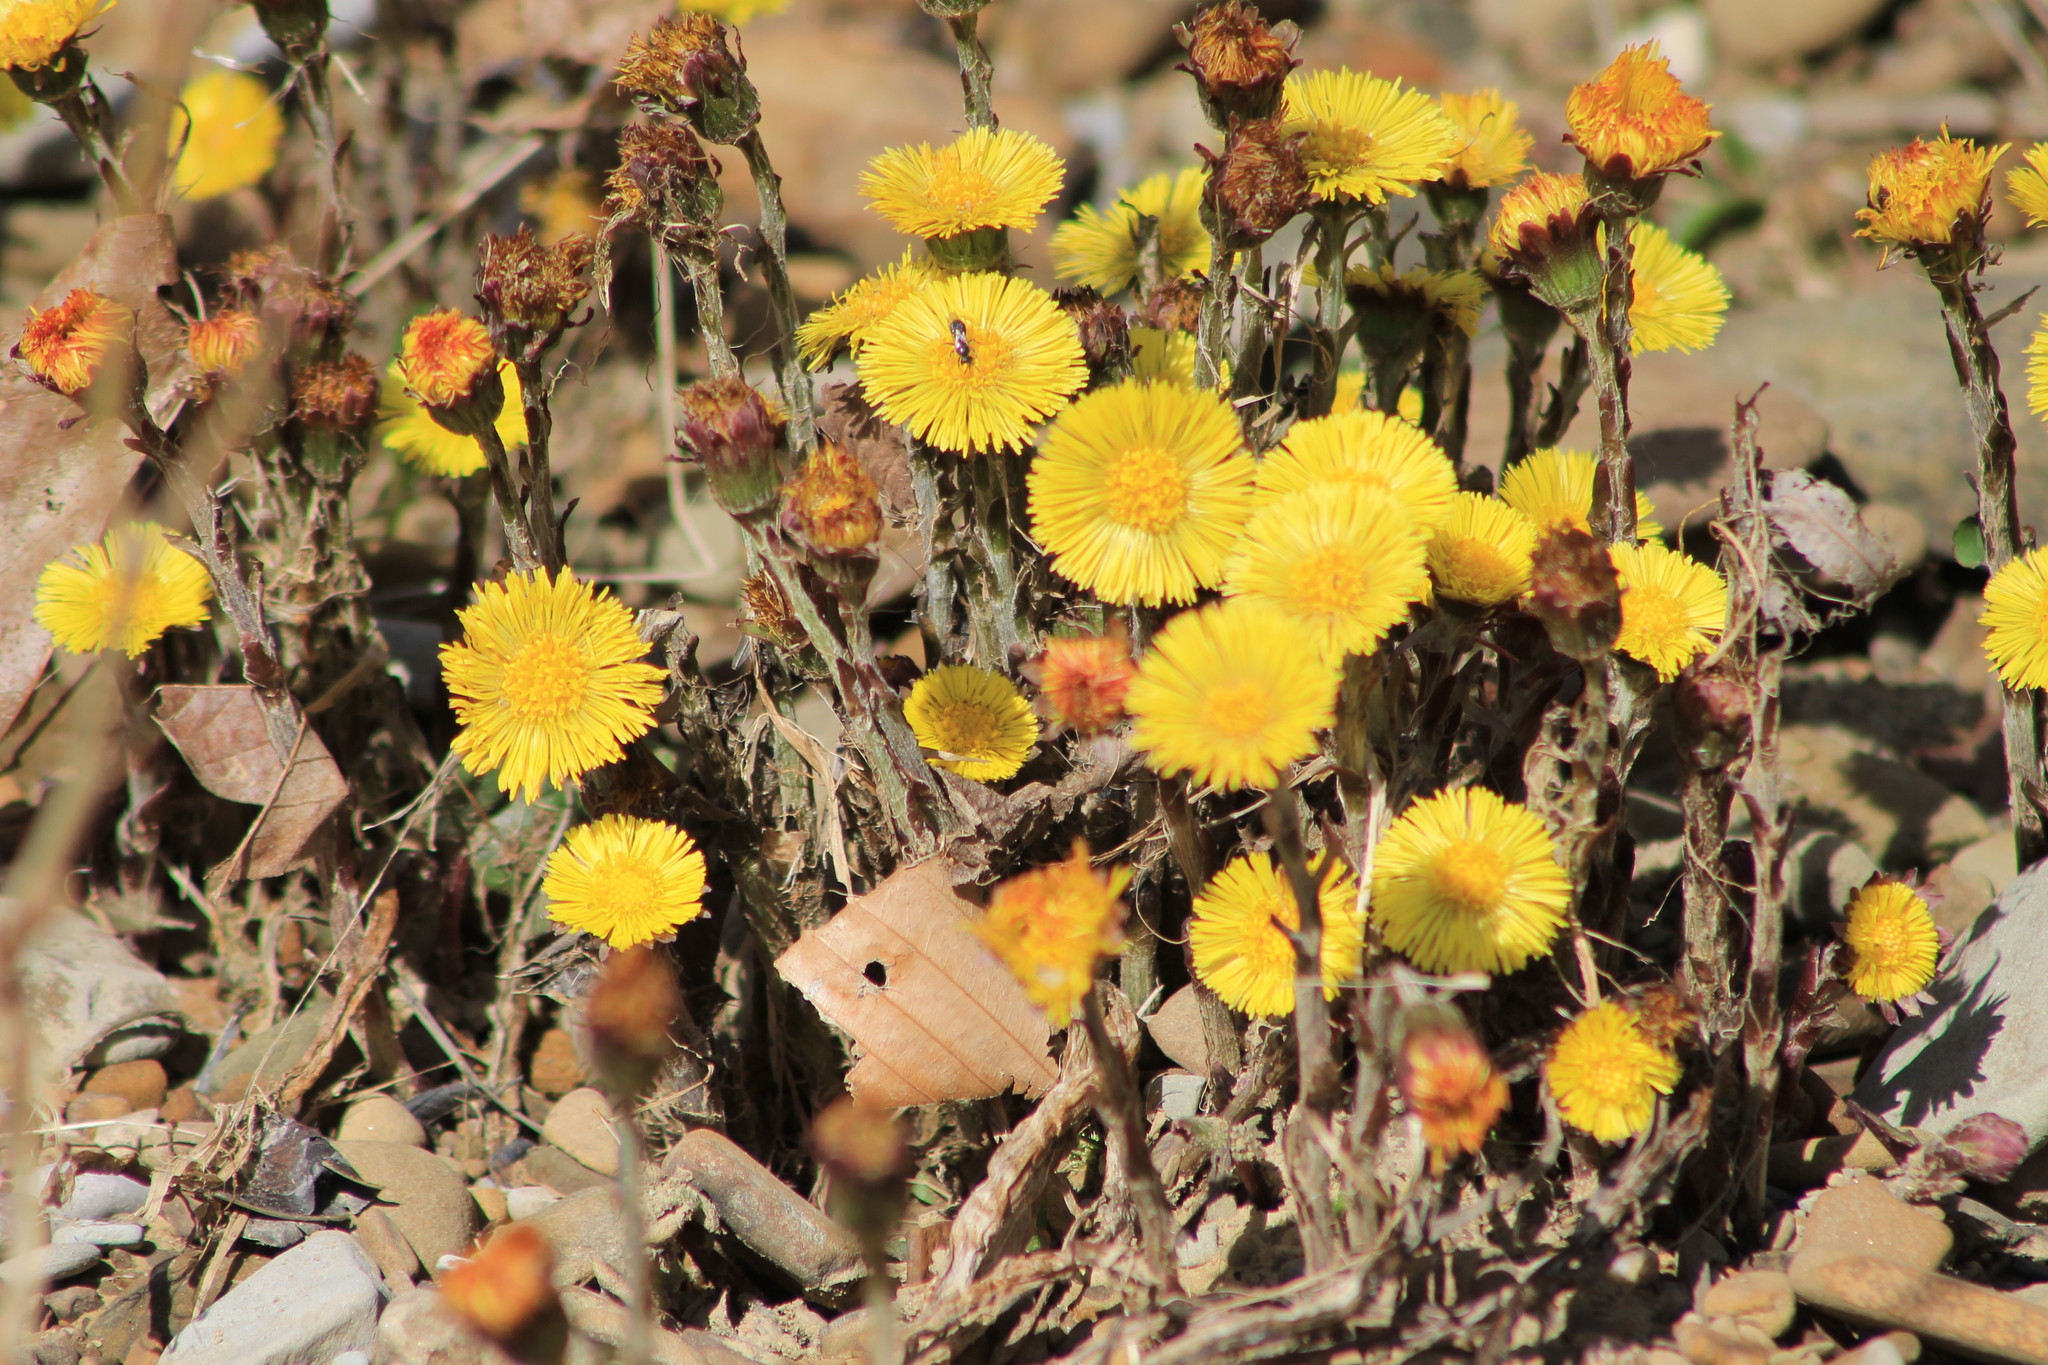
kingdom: Plantae
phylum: Tracheophyta
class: Magnoliopsida
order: Asterales
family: Asteraceae
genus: Tussilago
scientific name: Tussilago farfara
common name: Coltsfoot
